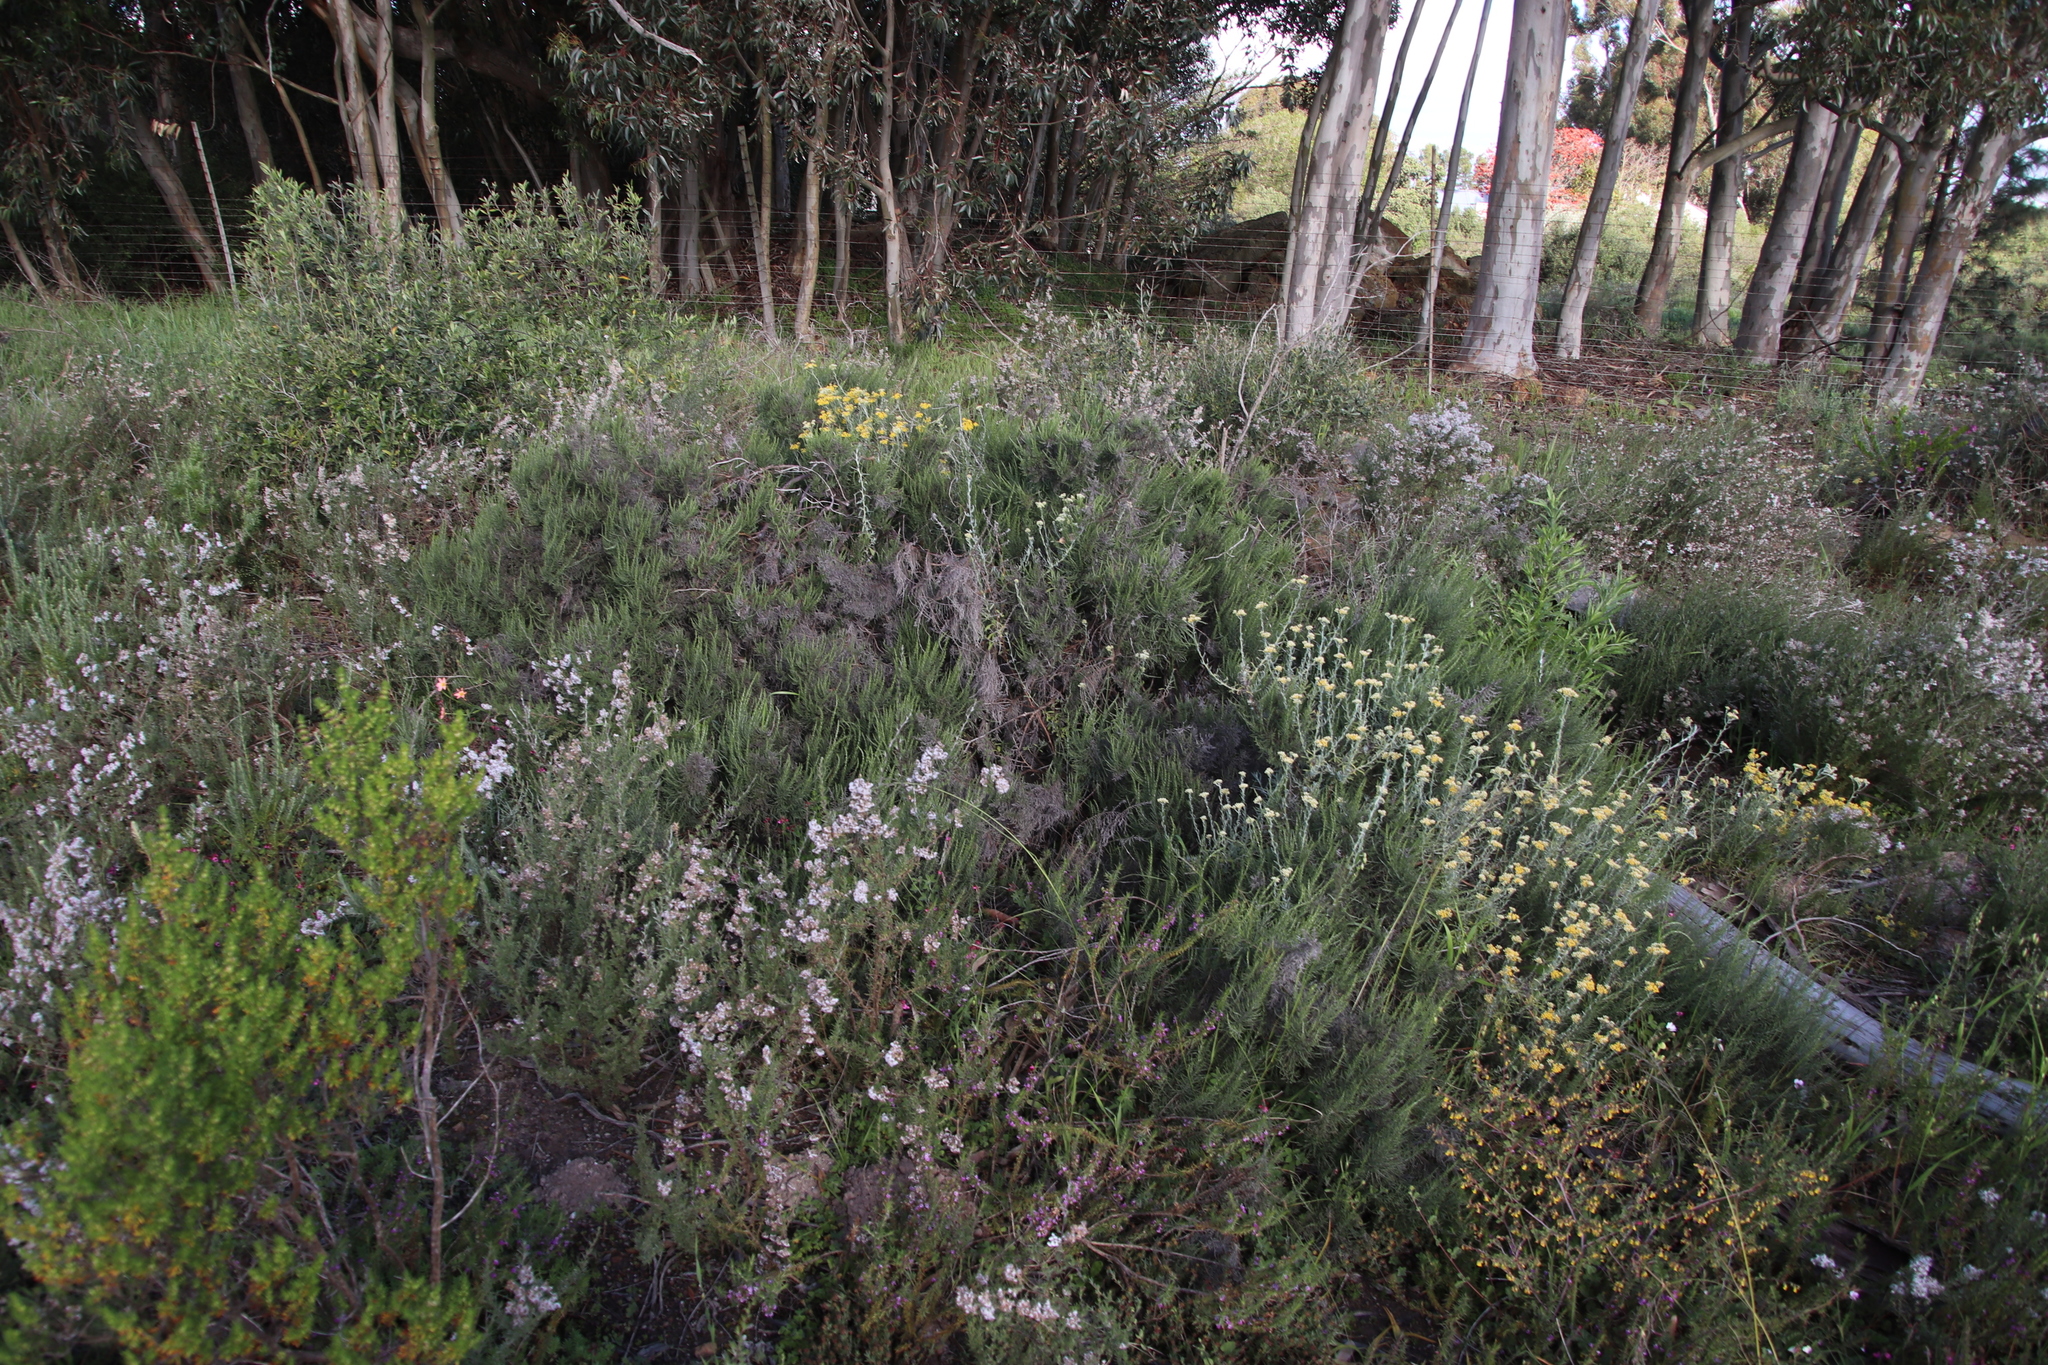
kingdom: Plantae
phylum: Tracheophyta
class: Magnoliopsida
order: Asterales
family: Asteraceae
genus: Dicerothamnus
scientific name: Dicerothamnus rhinocerotis
